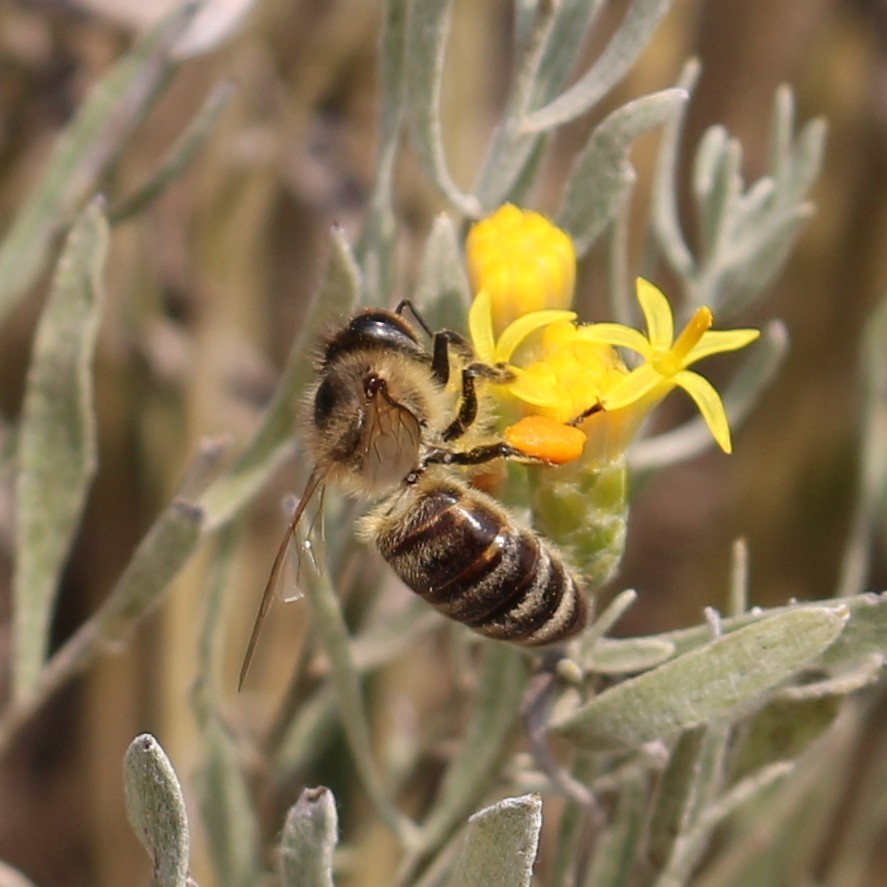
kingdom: Animalia
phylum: Arthropoda
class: Insecta
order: Hymenoptera
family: Apidae
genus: Apis
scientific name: Apis mellifera
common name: Honey bee
